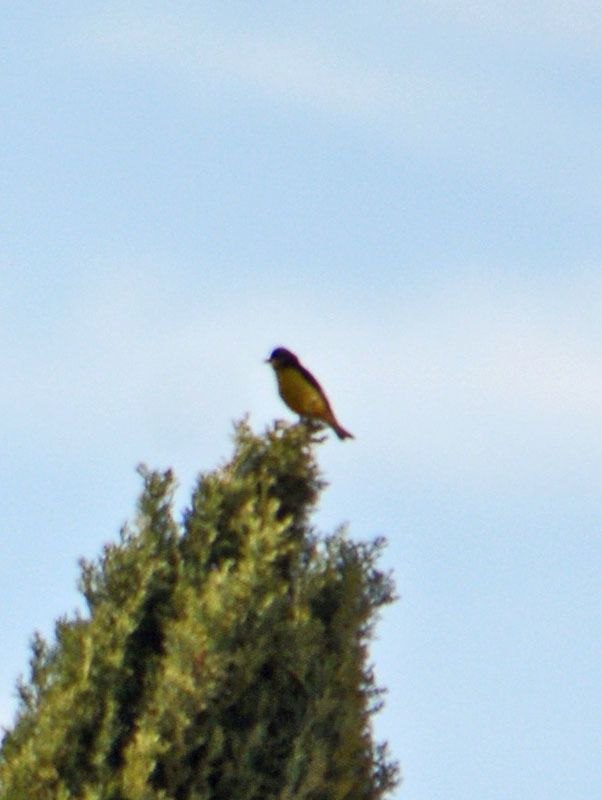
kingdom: Animalia
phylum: Chordata
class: Aves
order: Passeriformes
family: Fringillidae
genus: Spinus
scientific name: Spinus psaltria
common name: Lesser goldfinch
